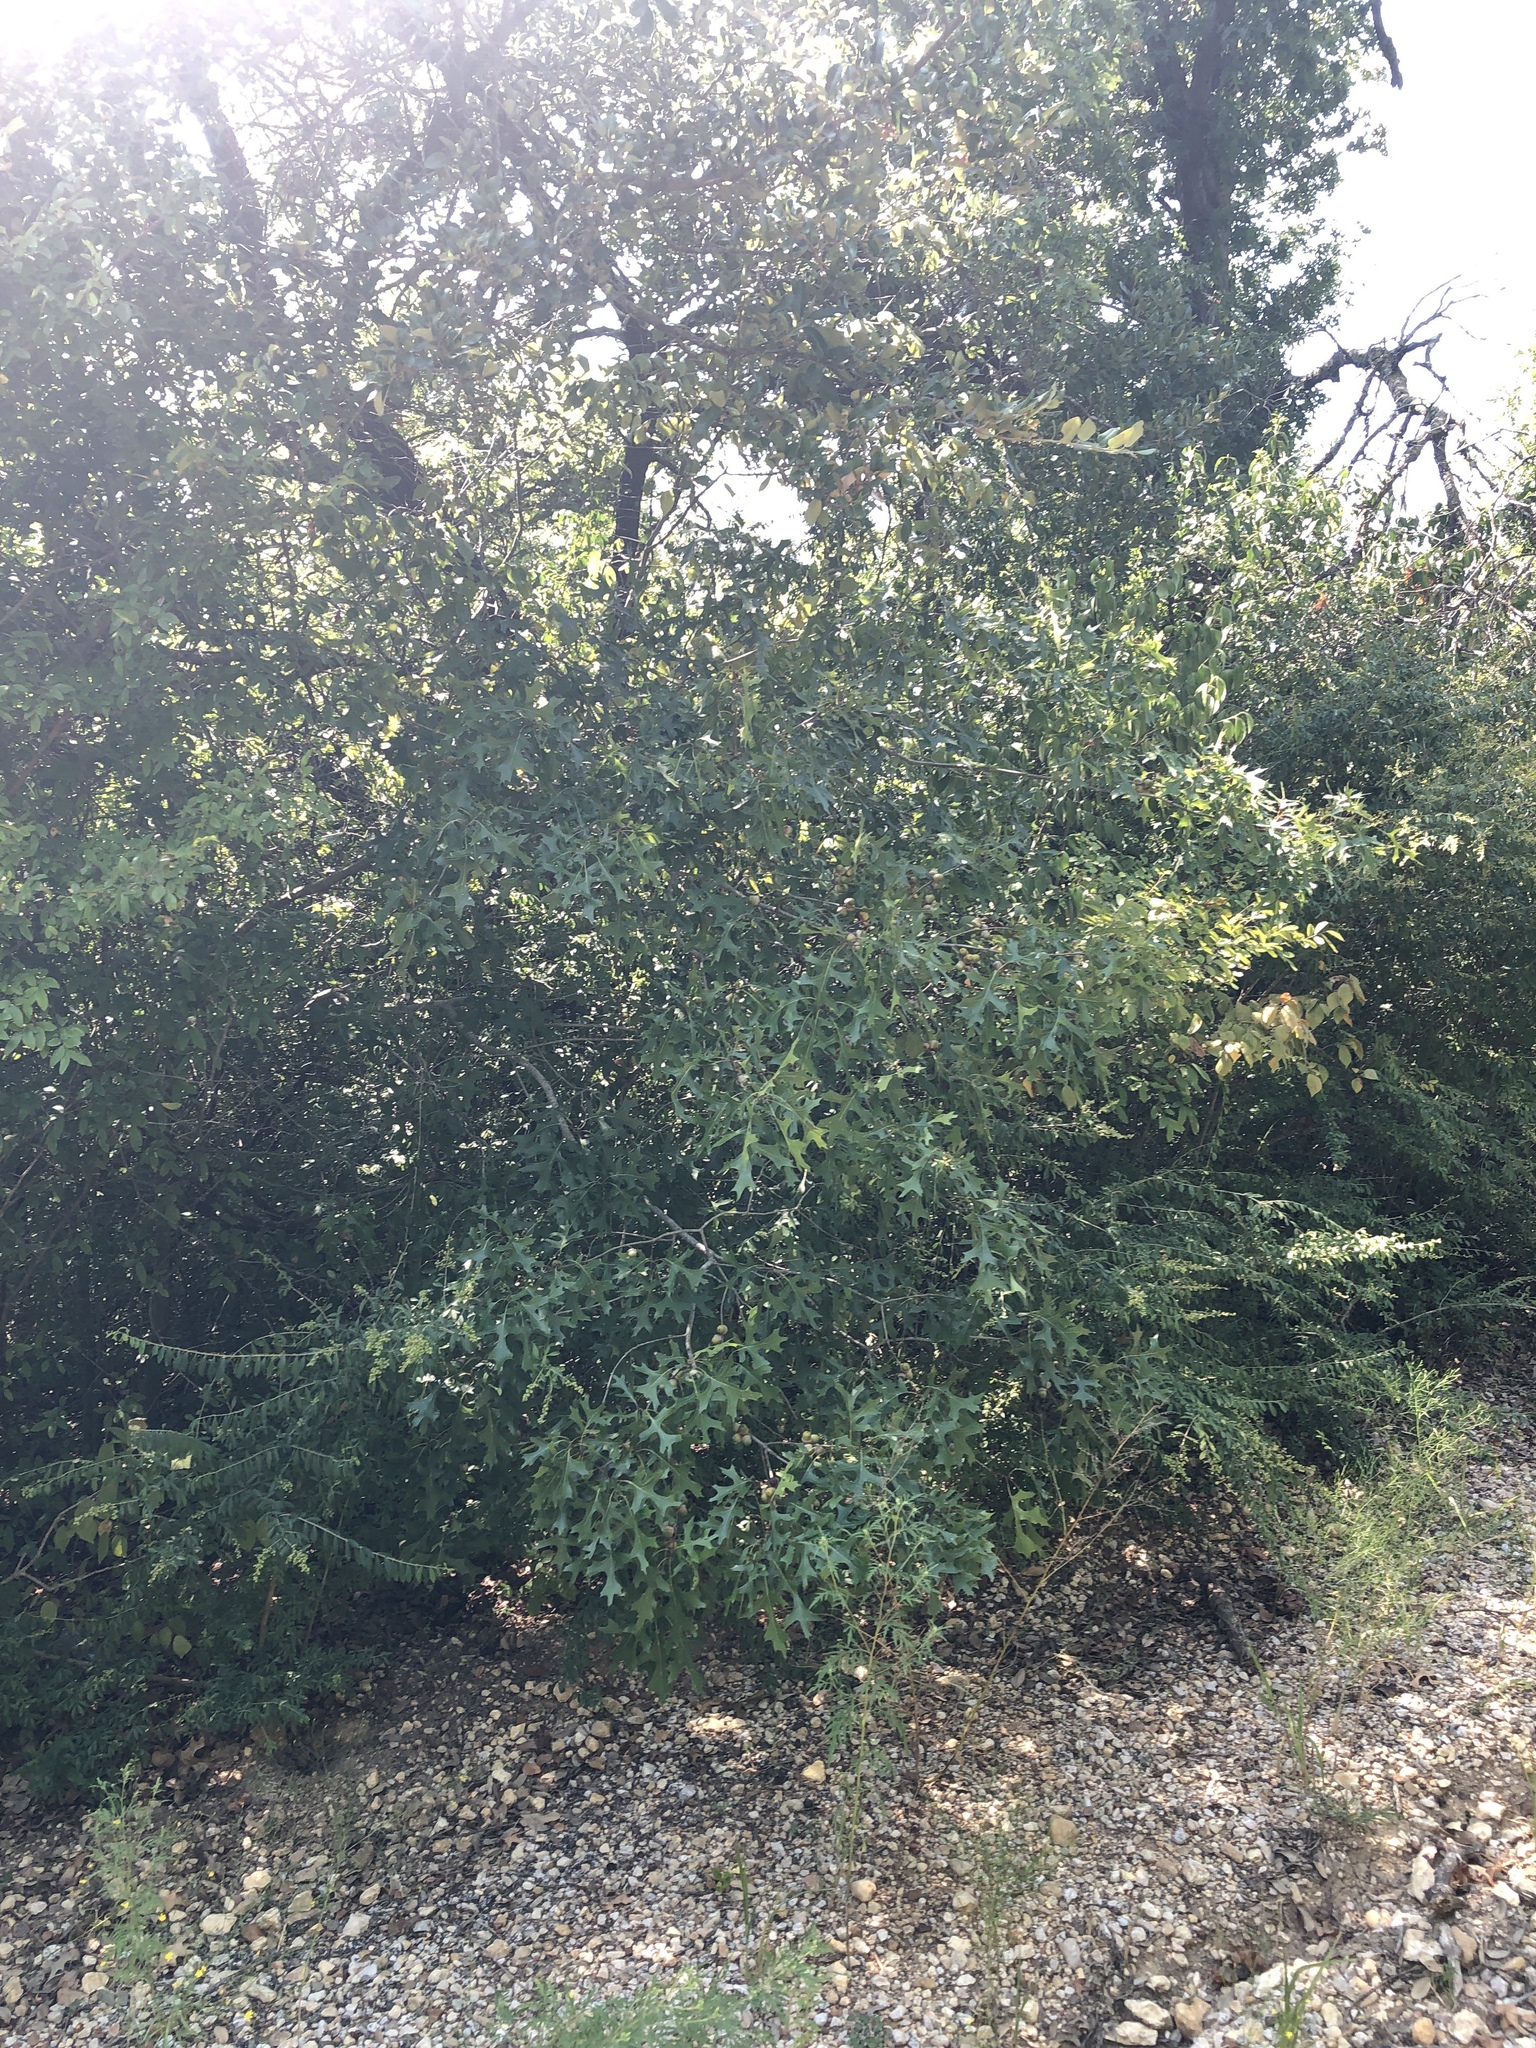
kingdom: Plantae
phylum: Tracheophyta
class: Magnoliopsida
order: Fagales
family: Fagaceae
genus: Quercus
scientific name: Quercus buckleyi
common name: Buckley oak
